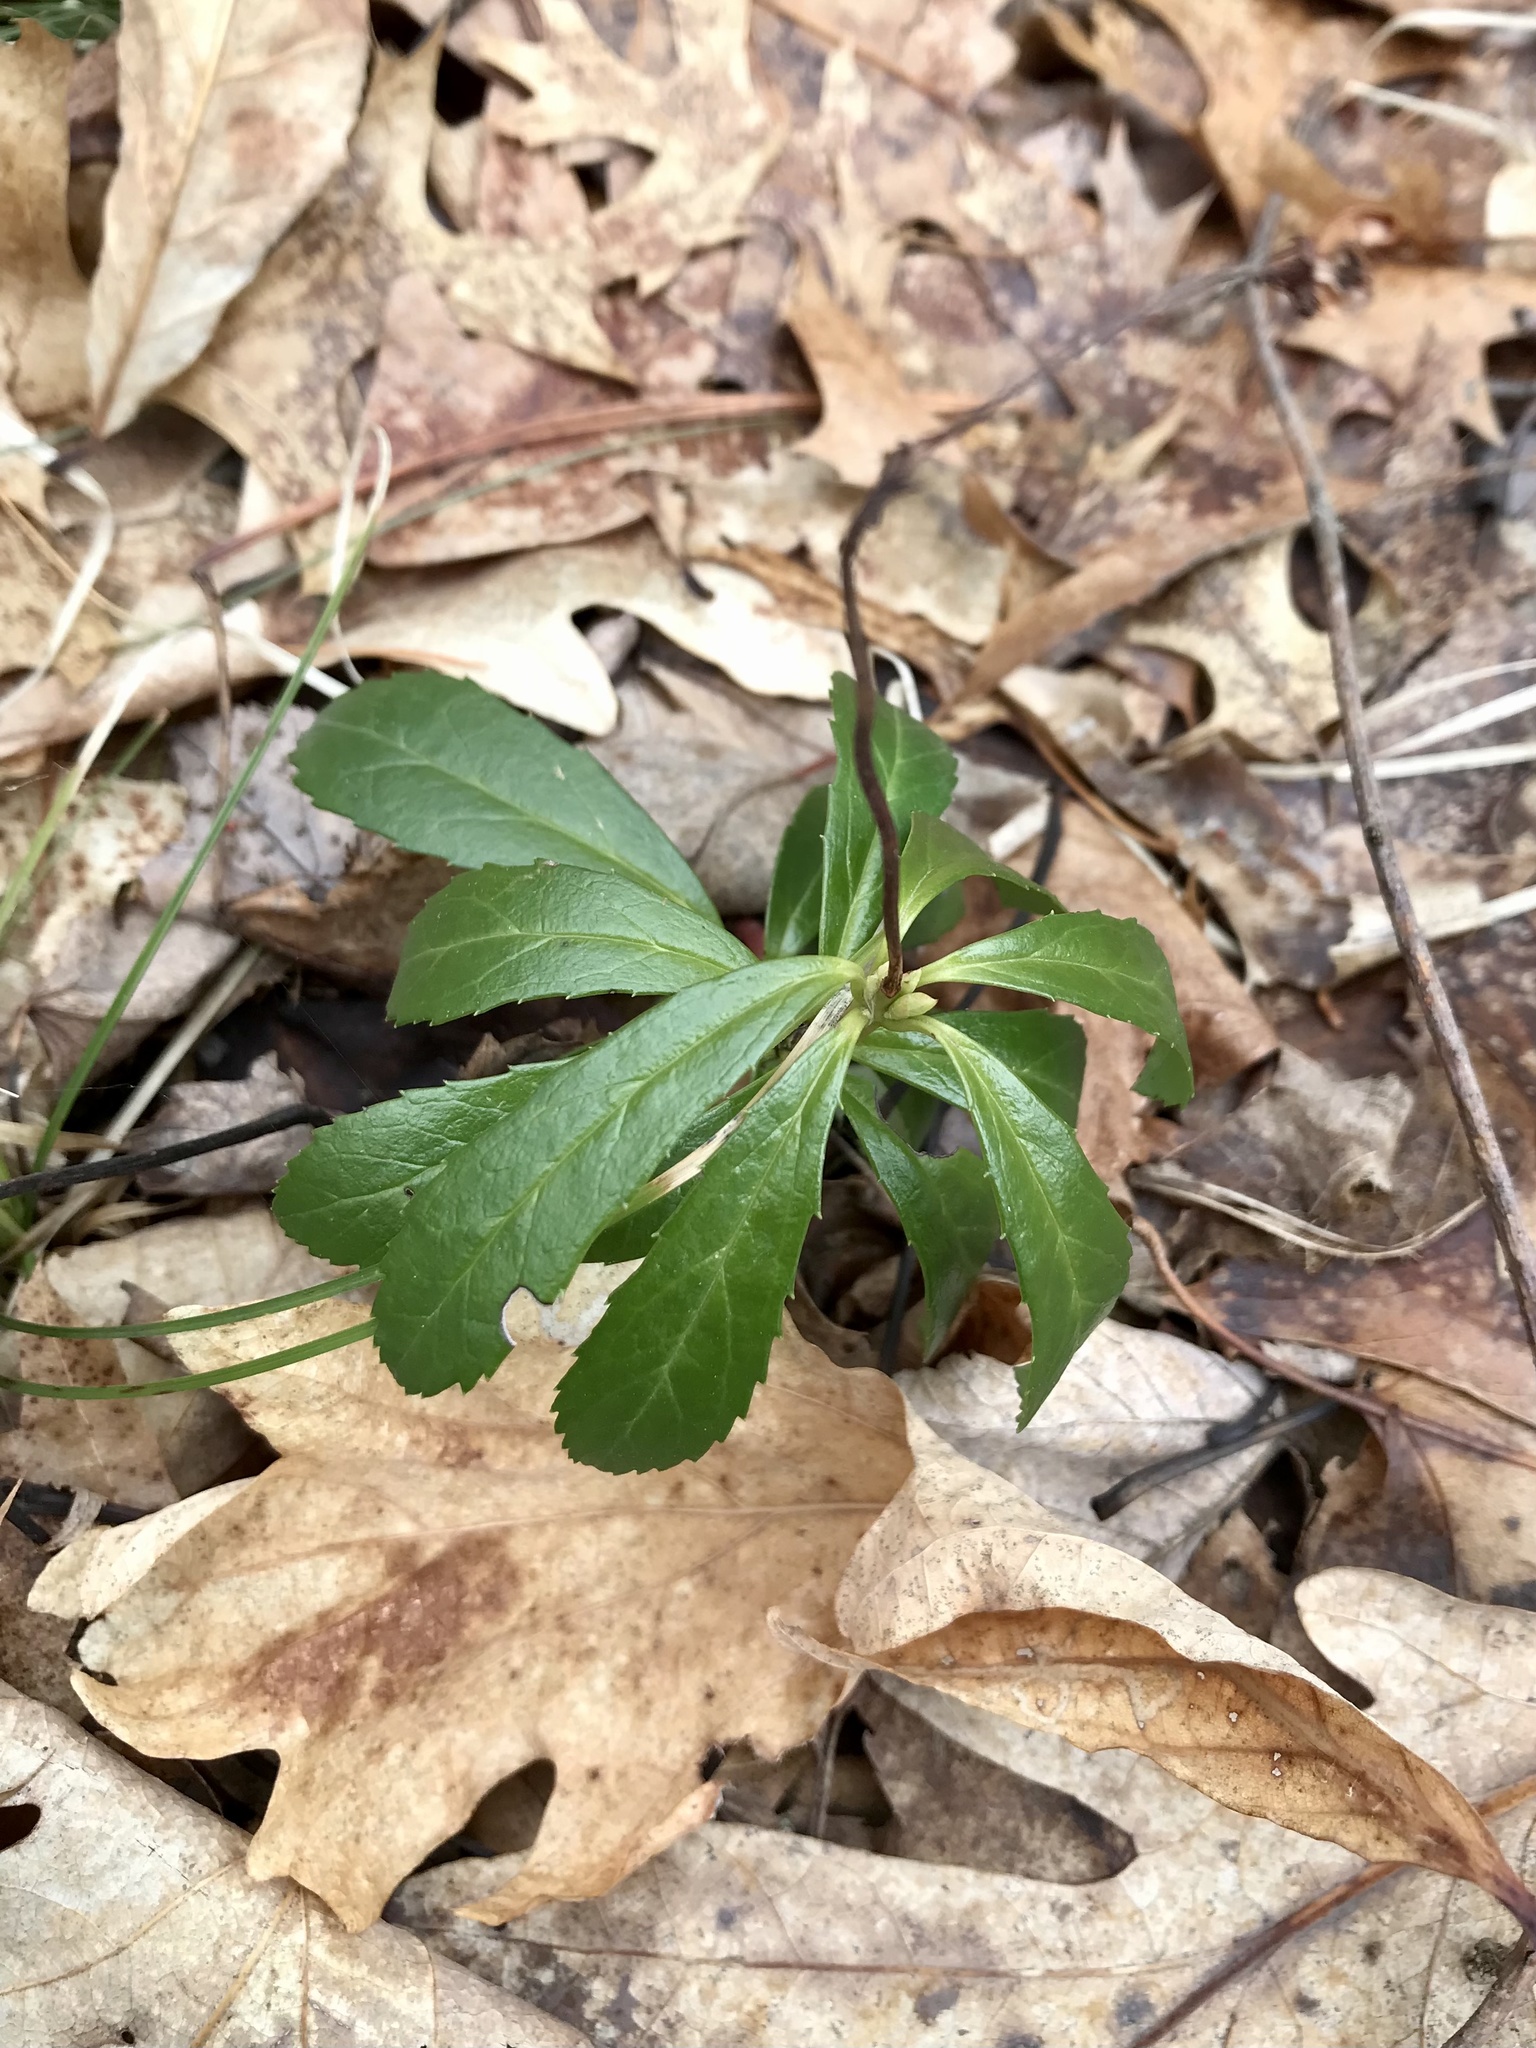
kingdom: Plantae
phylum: Tracheophyta
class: Magnoliopsida
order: Ericales
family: Ericaceae
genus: Chimaphila
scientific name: Chimaphila umbellata
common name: Pipsissewa
